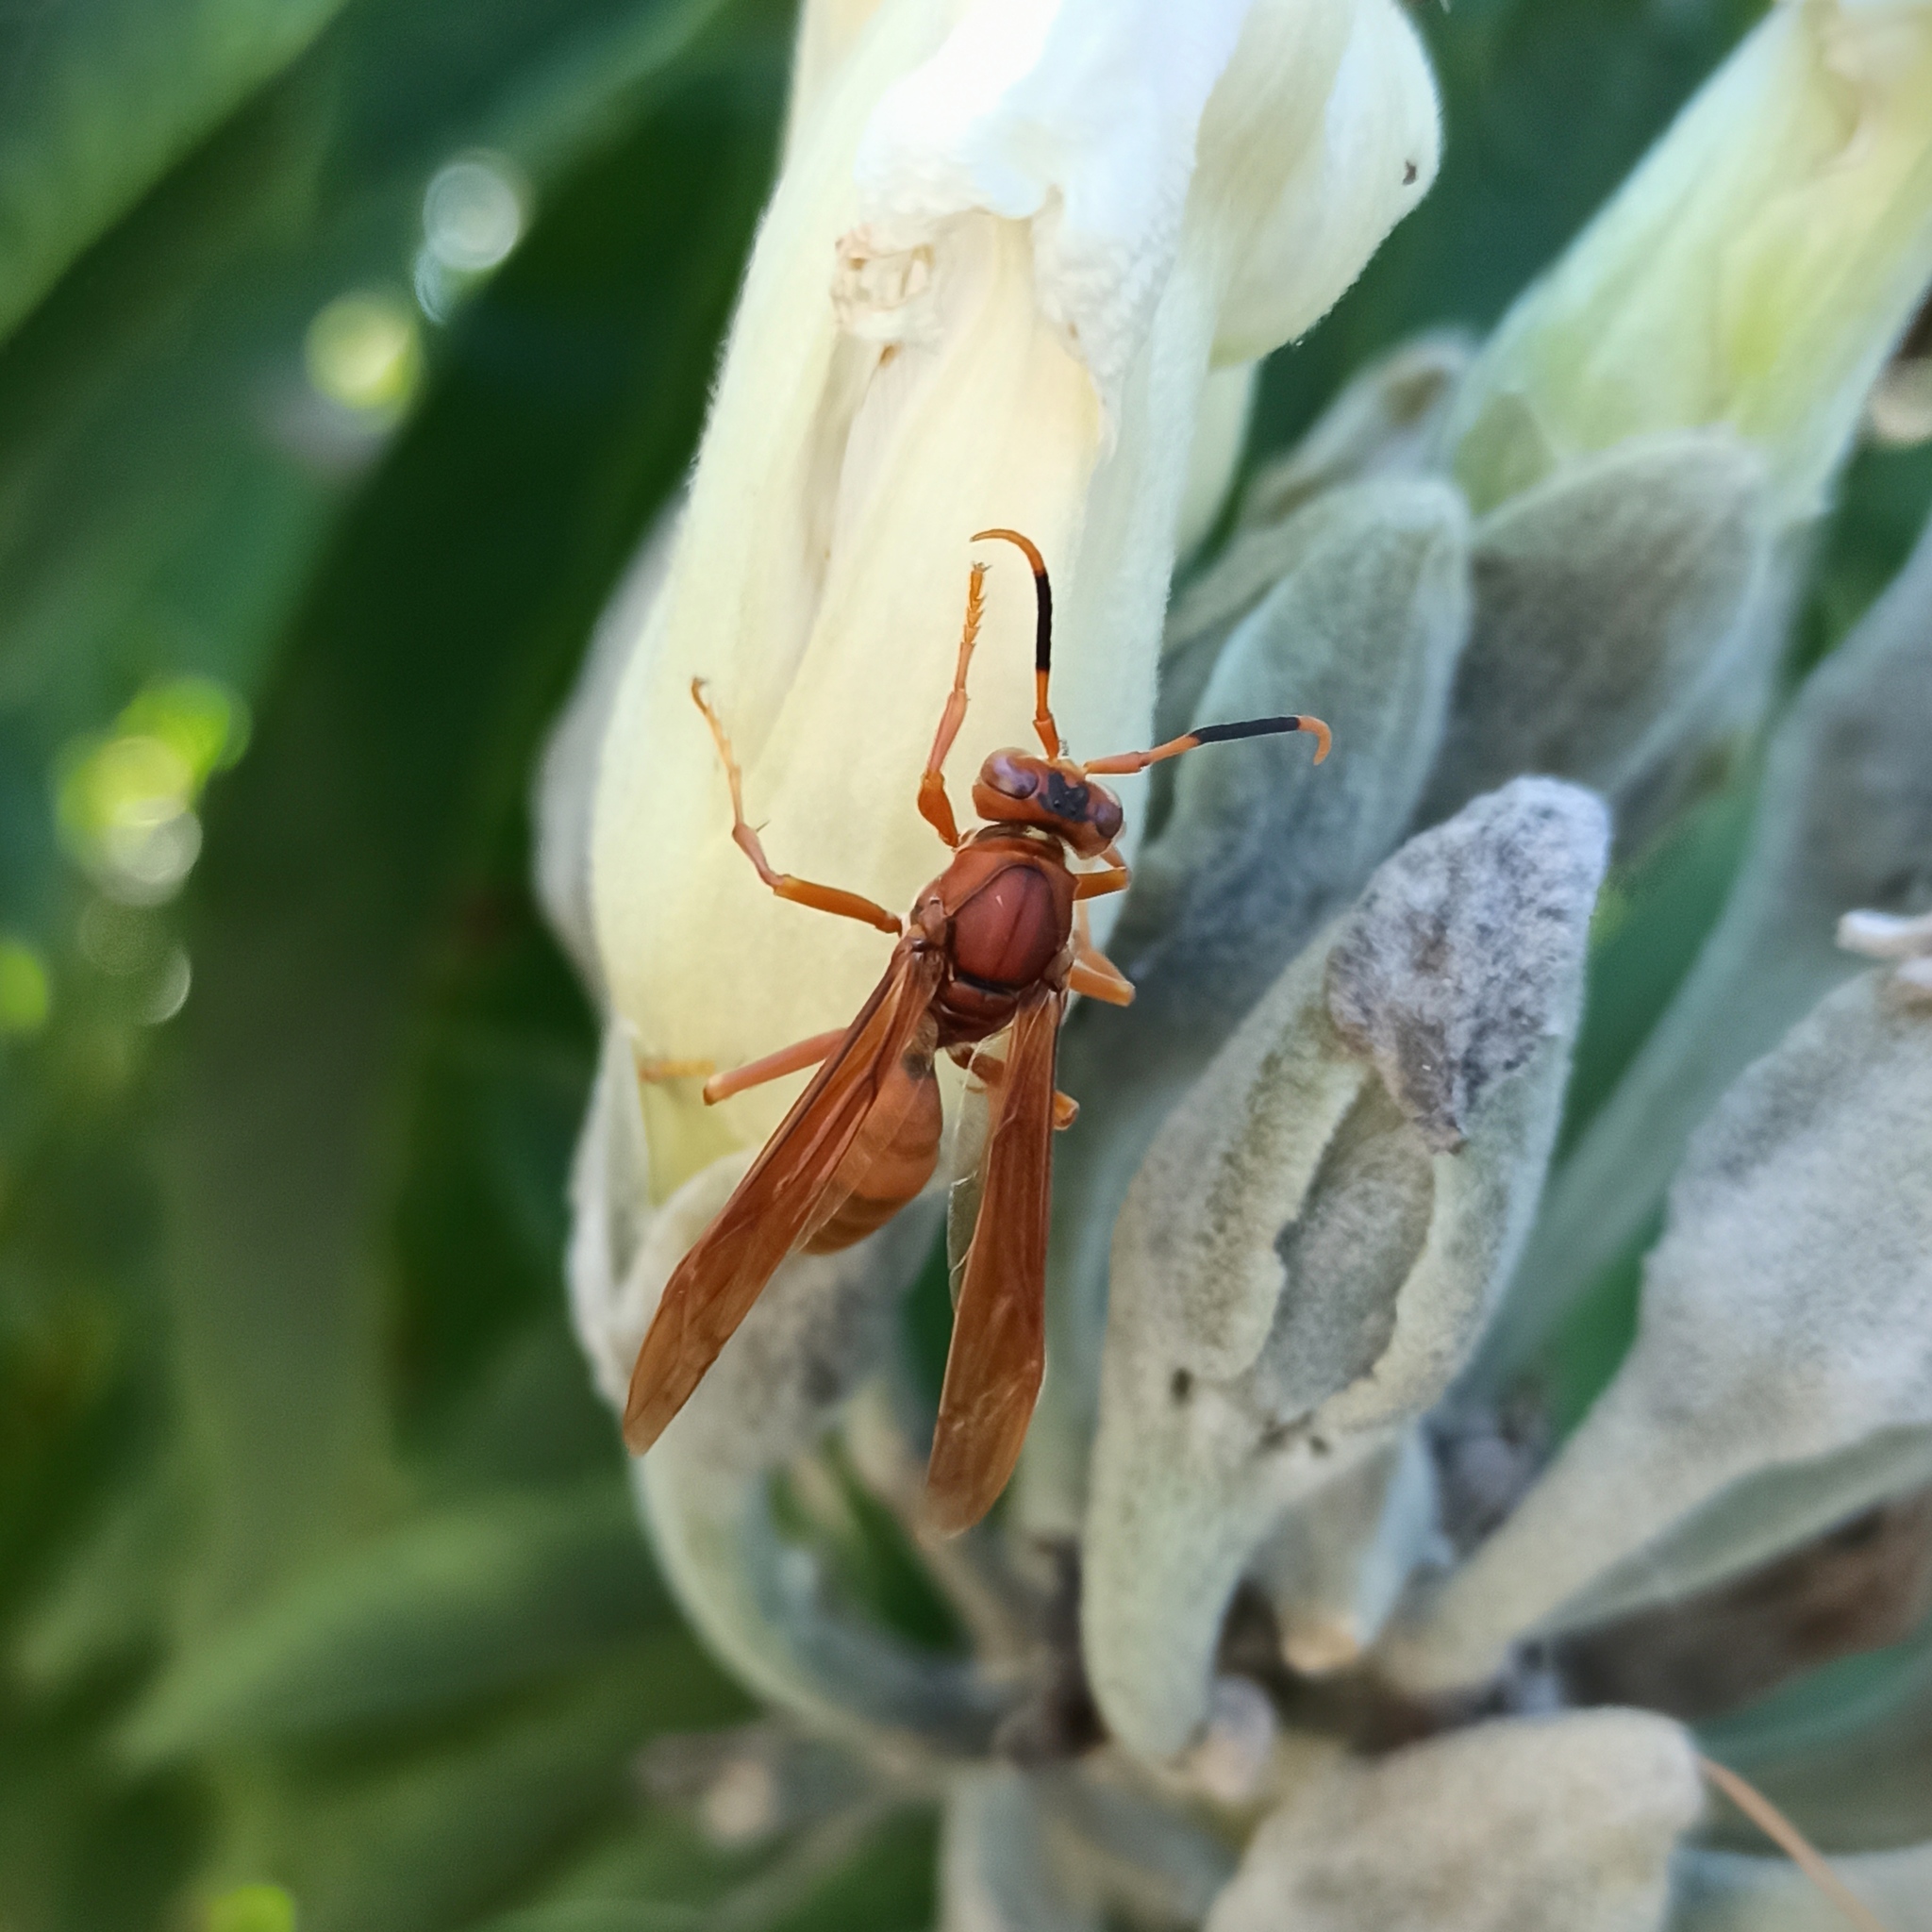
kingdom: Animalia
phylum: Arthropoda
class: Insecta
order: Hymenoptera
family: Eumenidae
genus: Polistes
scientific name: Polistes canadensis
